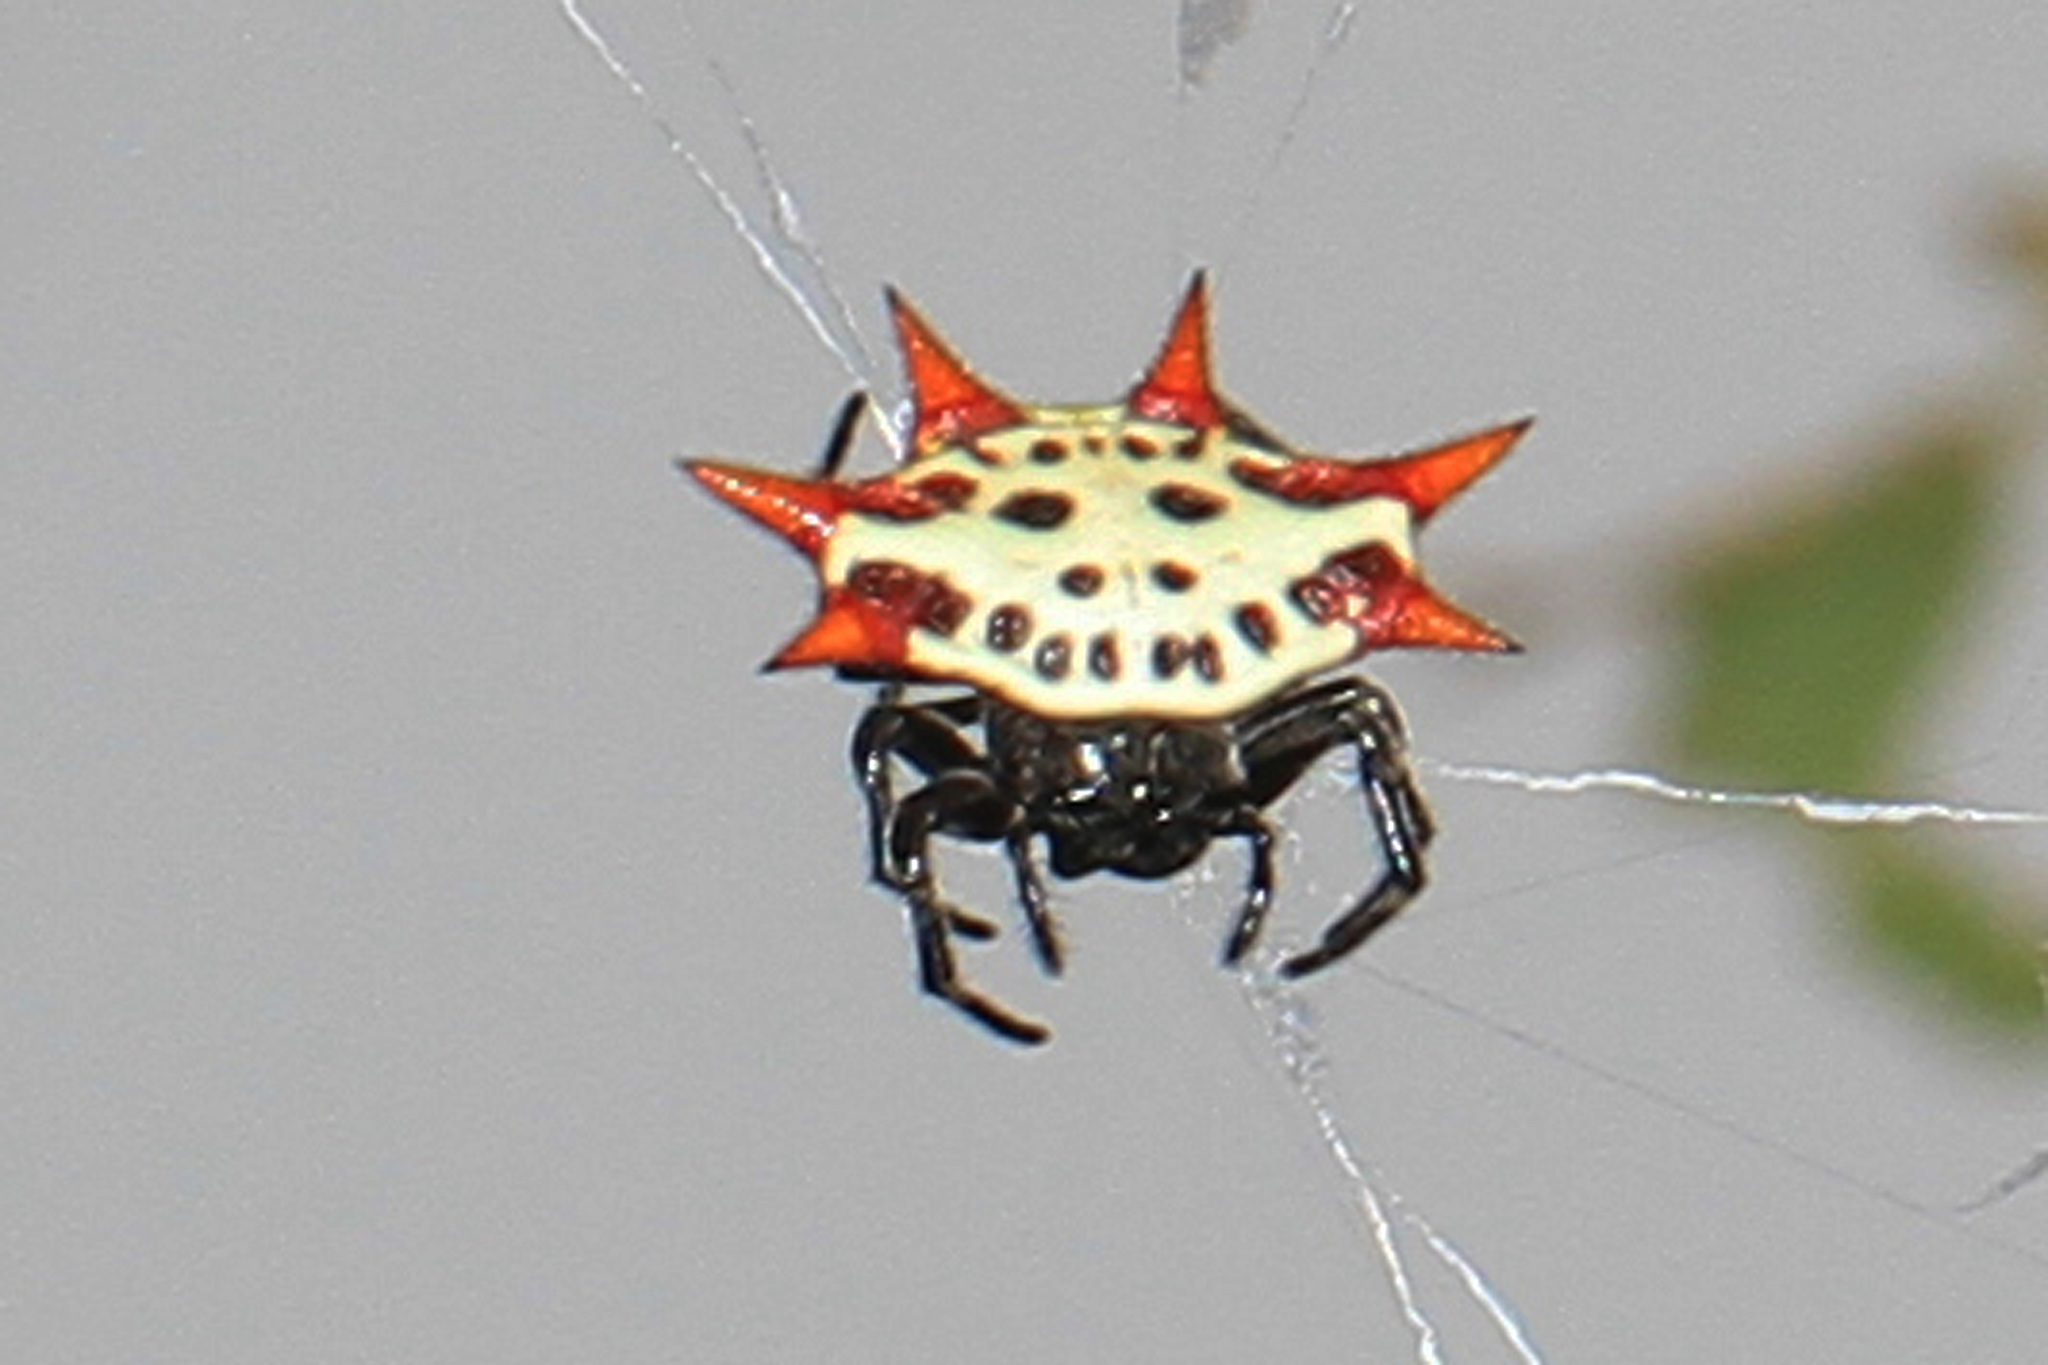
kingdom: Animalia
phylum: Arthropoda
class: Arachnida
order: Araneae
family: Araneidae
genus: Gasteracantha
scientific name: Gasteracantha cancriformis
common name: Orb weavers
